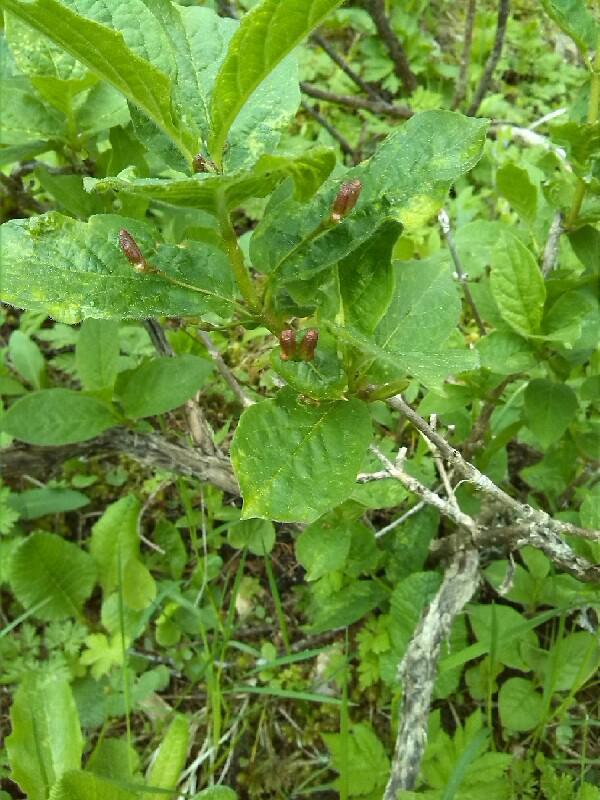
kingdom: Plantae
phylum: Tracheophyta
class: Magnoliopsida
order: Dipsacales
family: Caprifoliaceae
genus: Lonicera
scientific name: Lonicera alpigena
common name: Alpine honeysuckle
